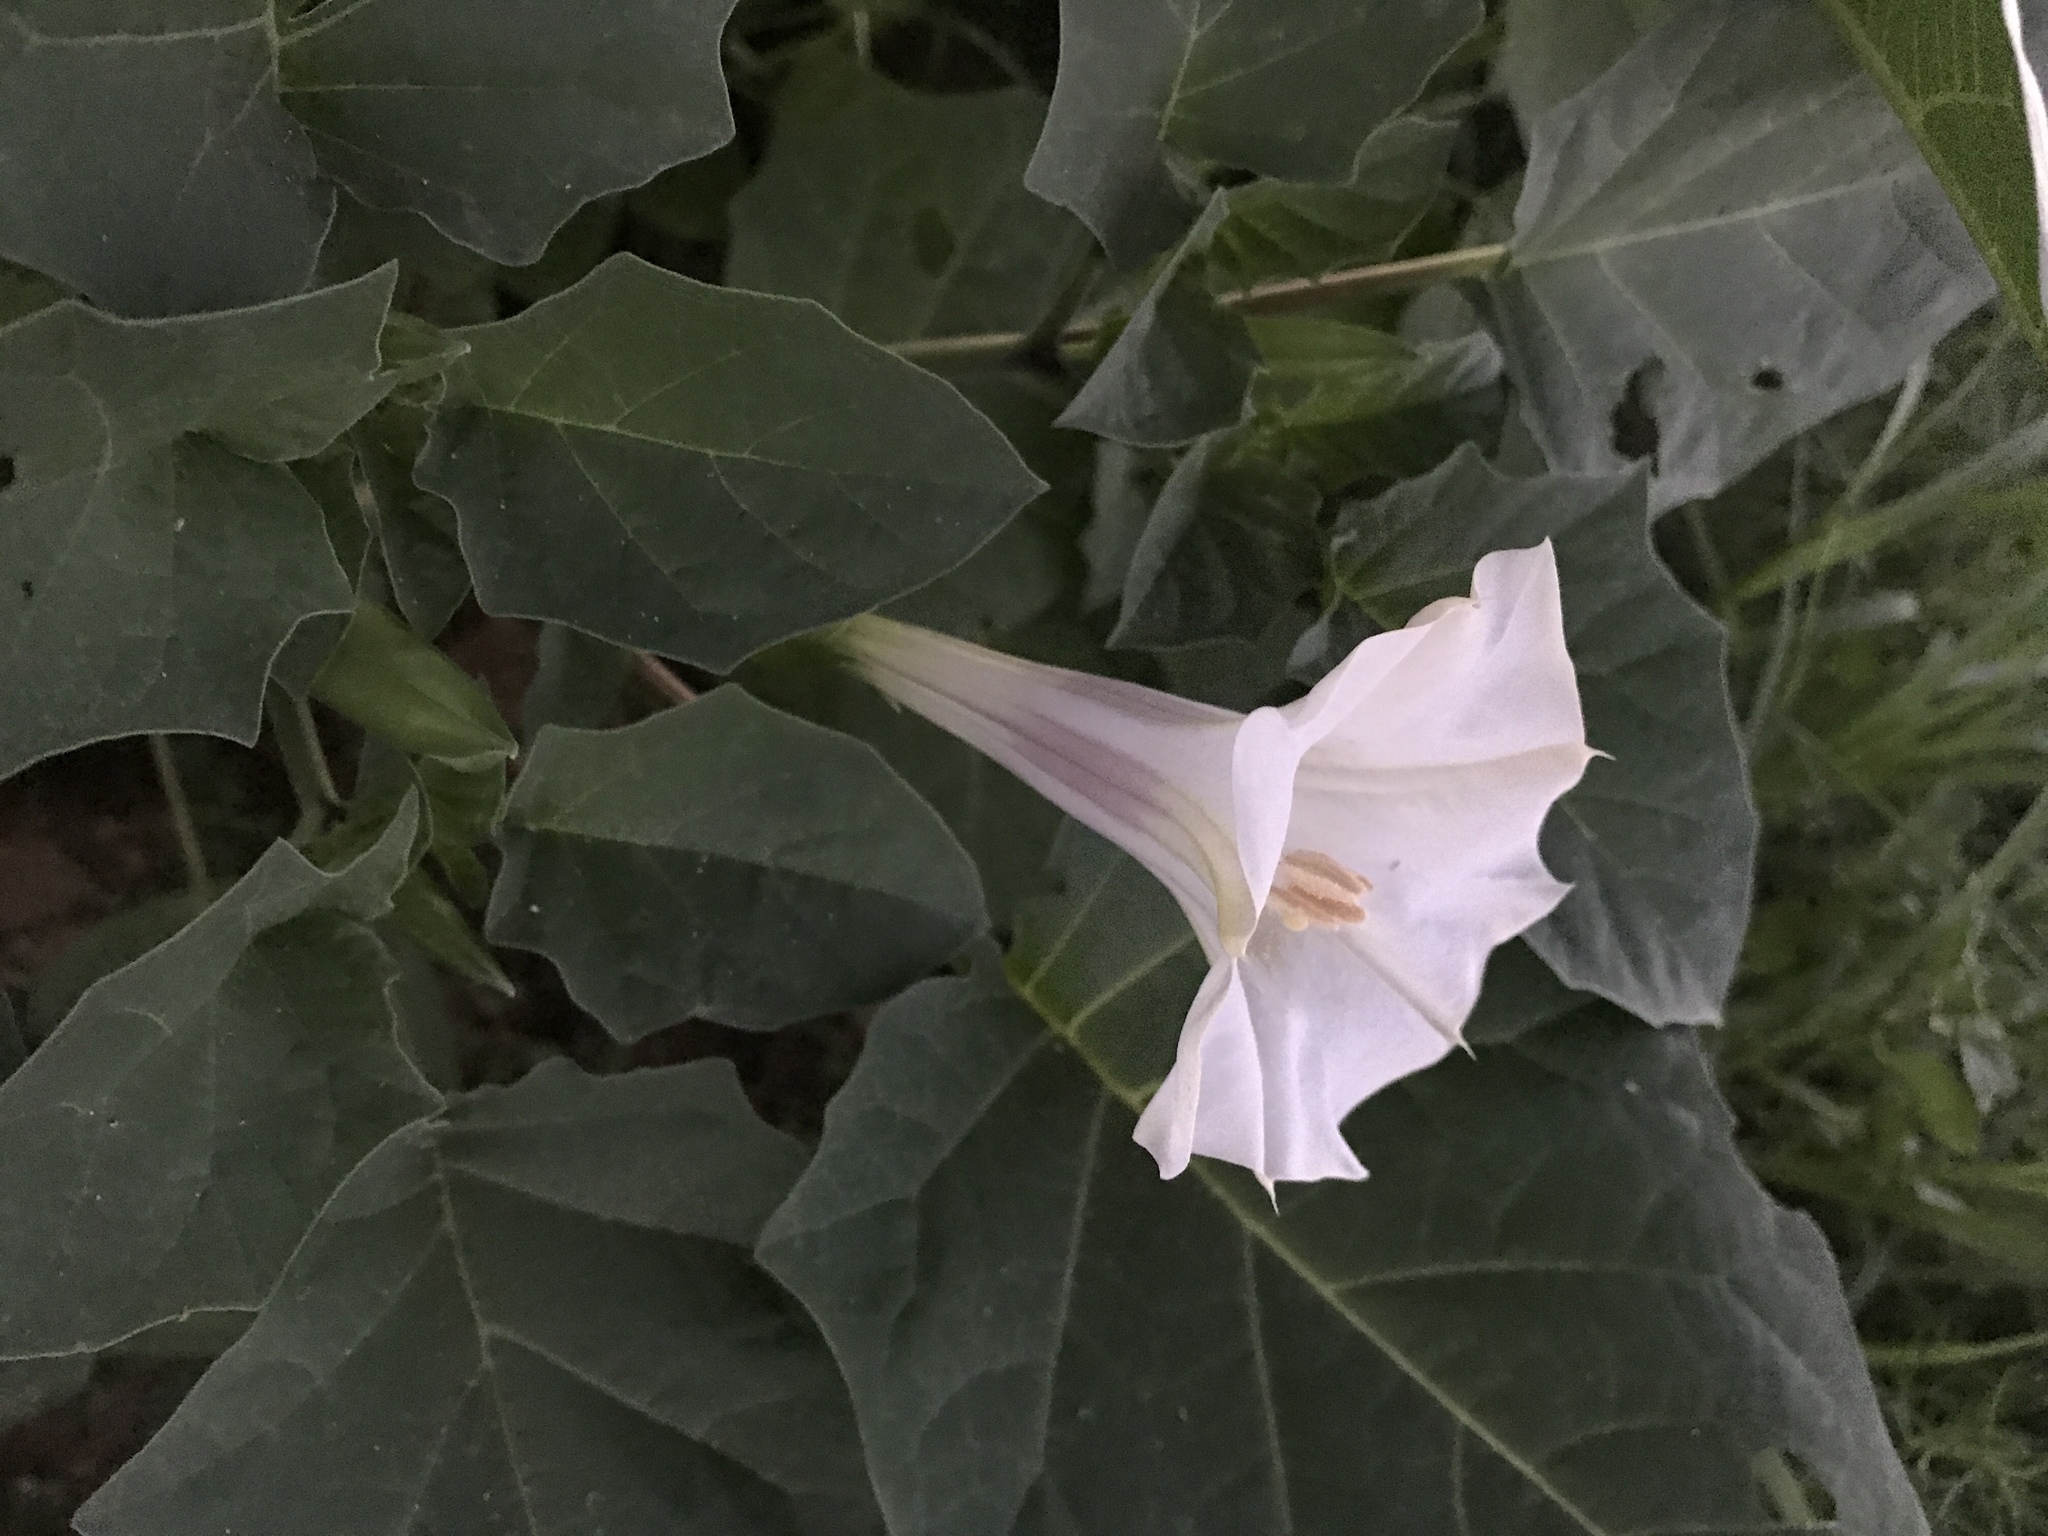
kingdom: Plantae
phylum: Tracheophyta
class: Magnoliopsida
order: Solanales
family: Solanaceae
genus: Datura
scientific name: Datura wrightii
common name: Sacred thorn-apple
